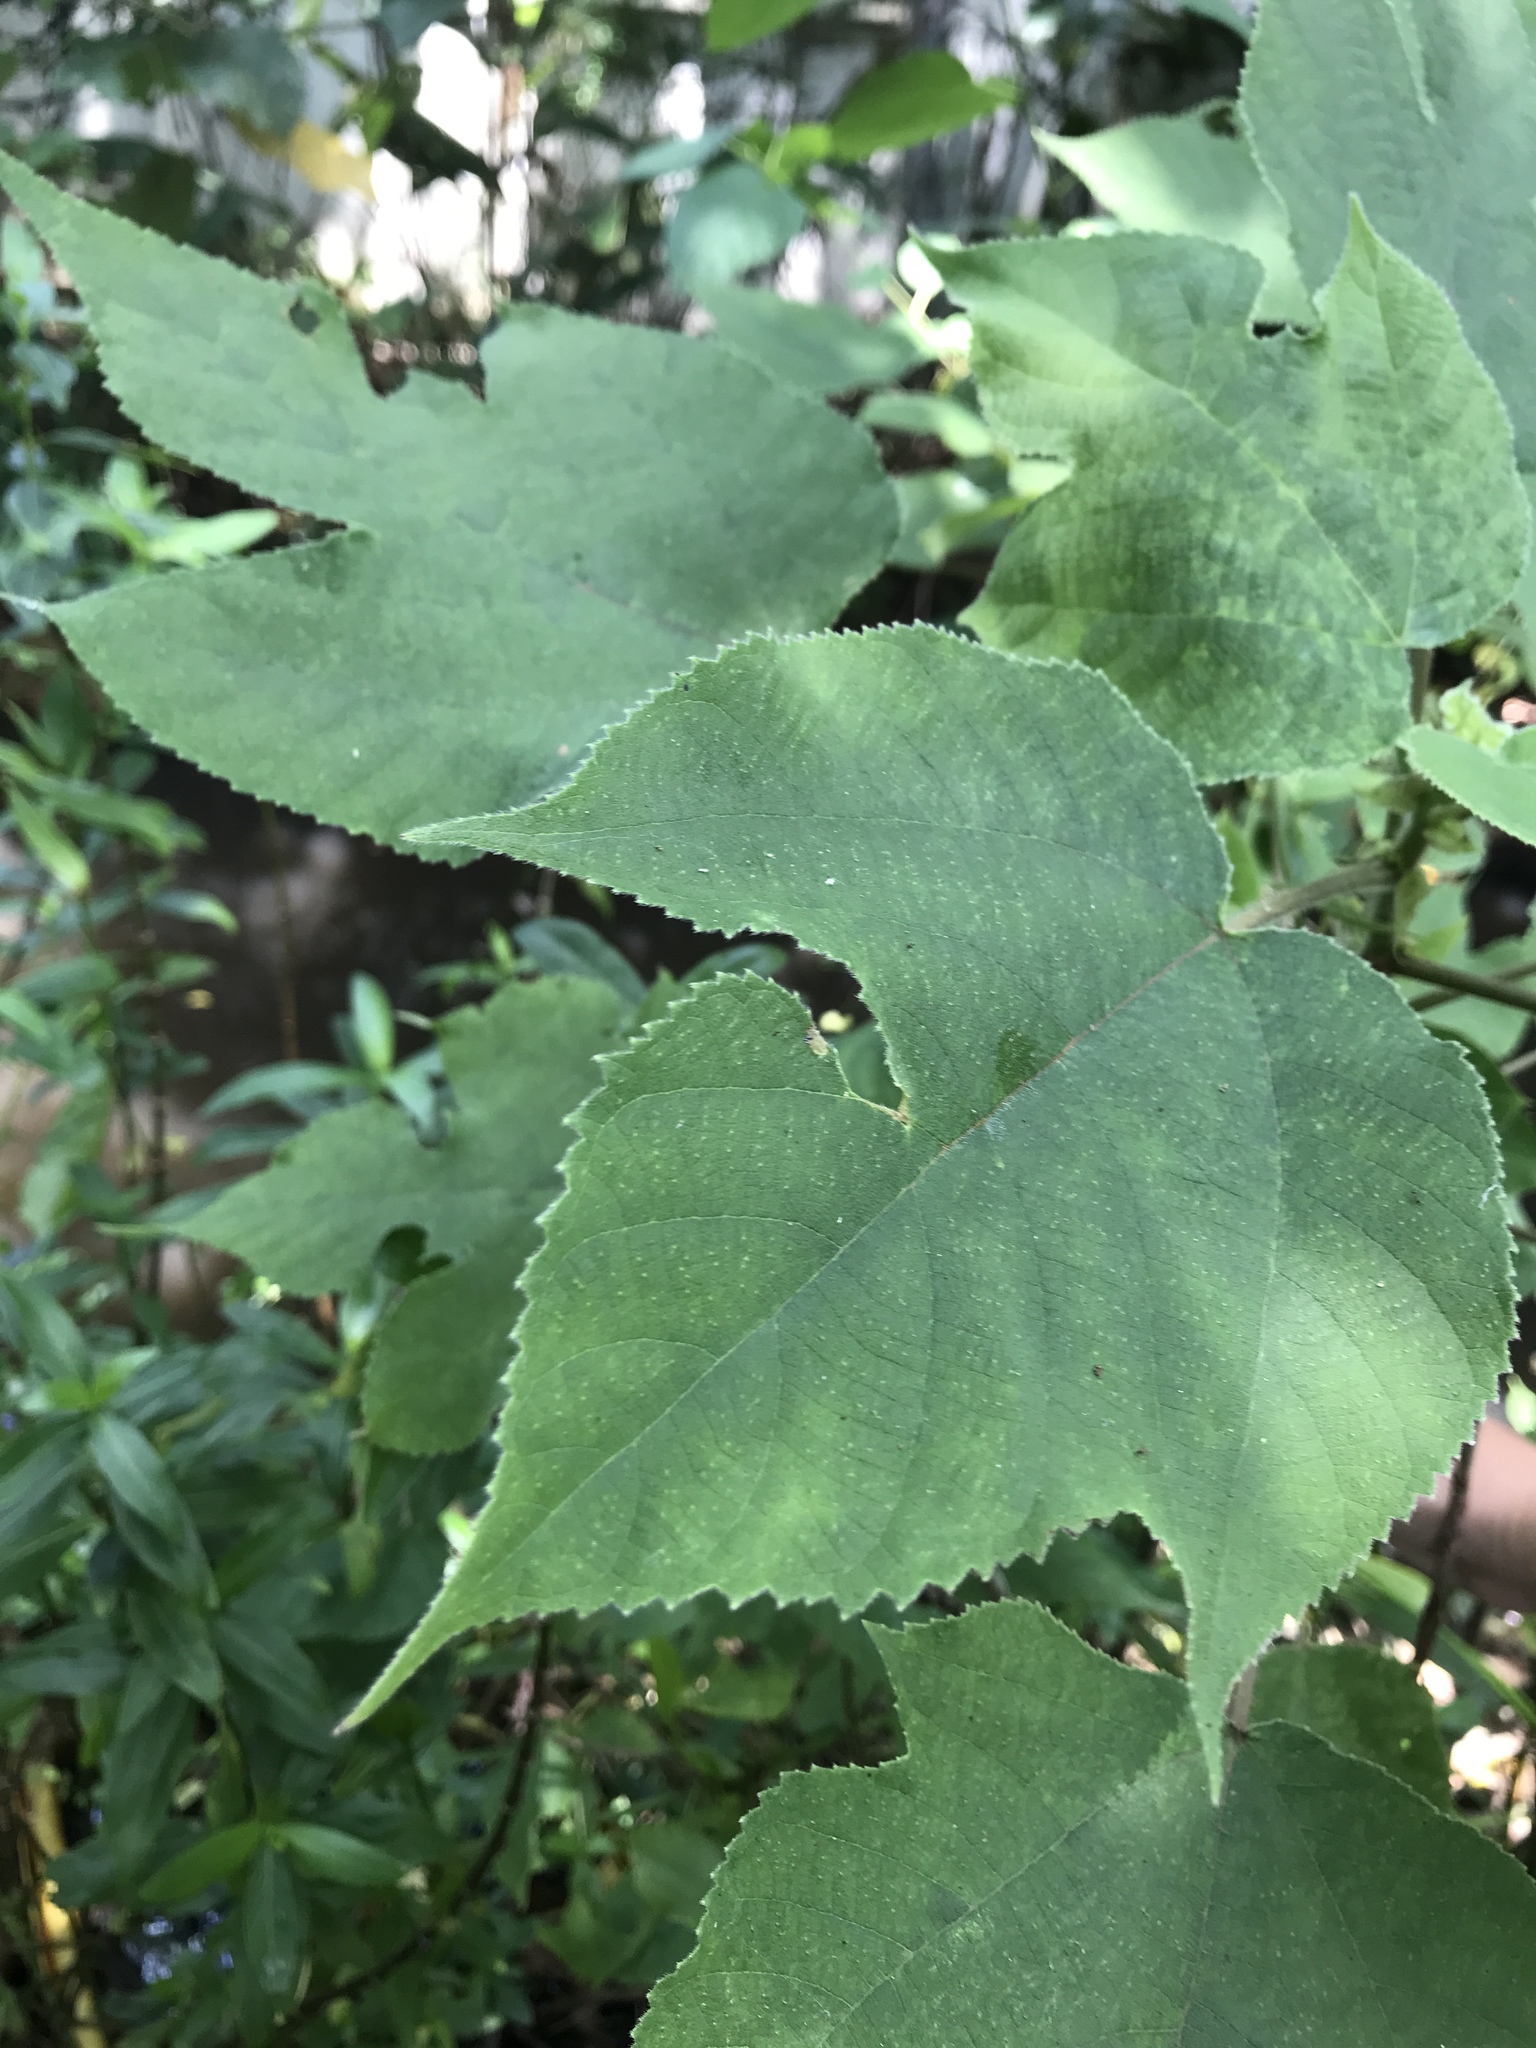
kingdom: Plantae
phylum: Tracheophyta
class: Magnoliopsida
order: Rosales
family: Moraceae
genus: Broussonetia
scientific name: Broussonetia papyrifera
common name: Paper mulberry
